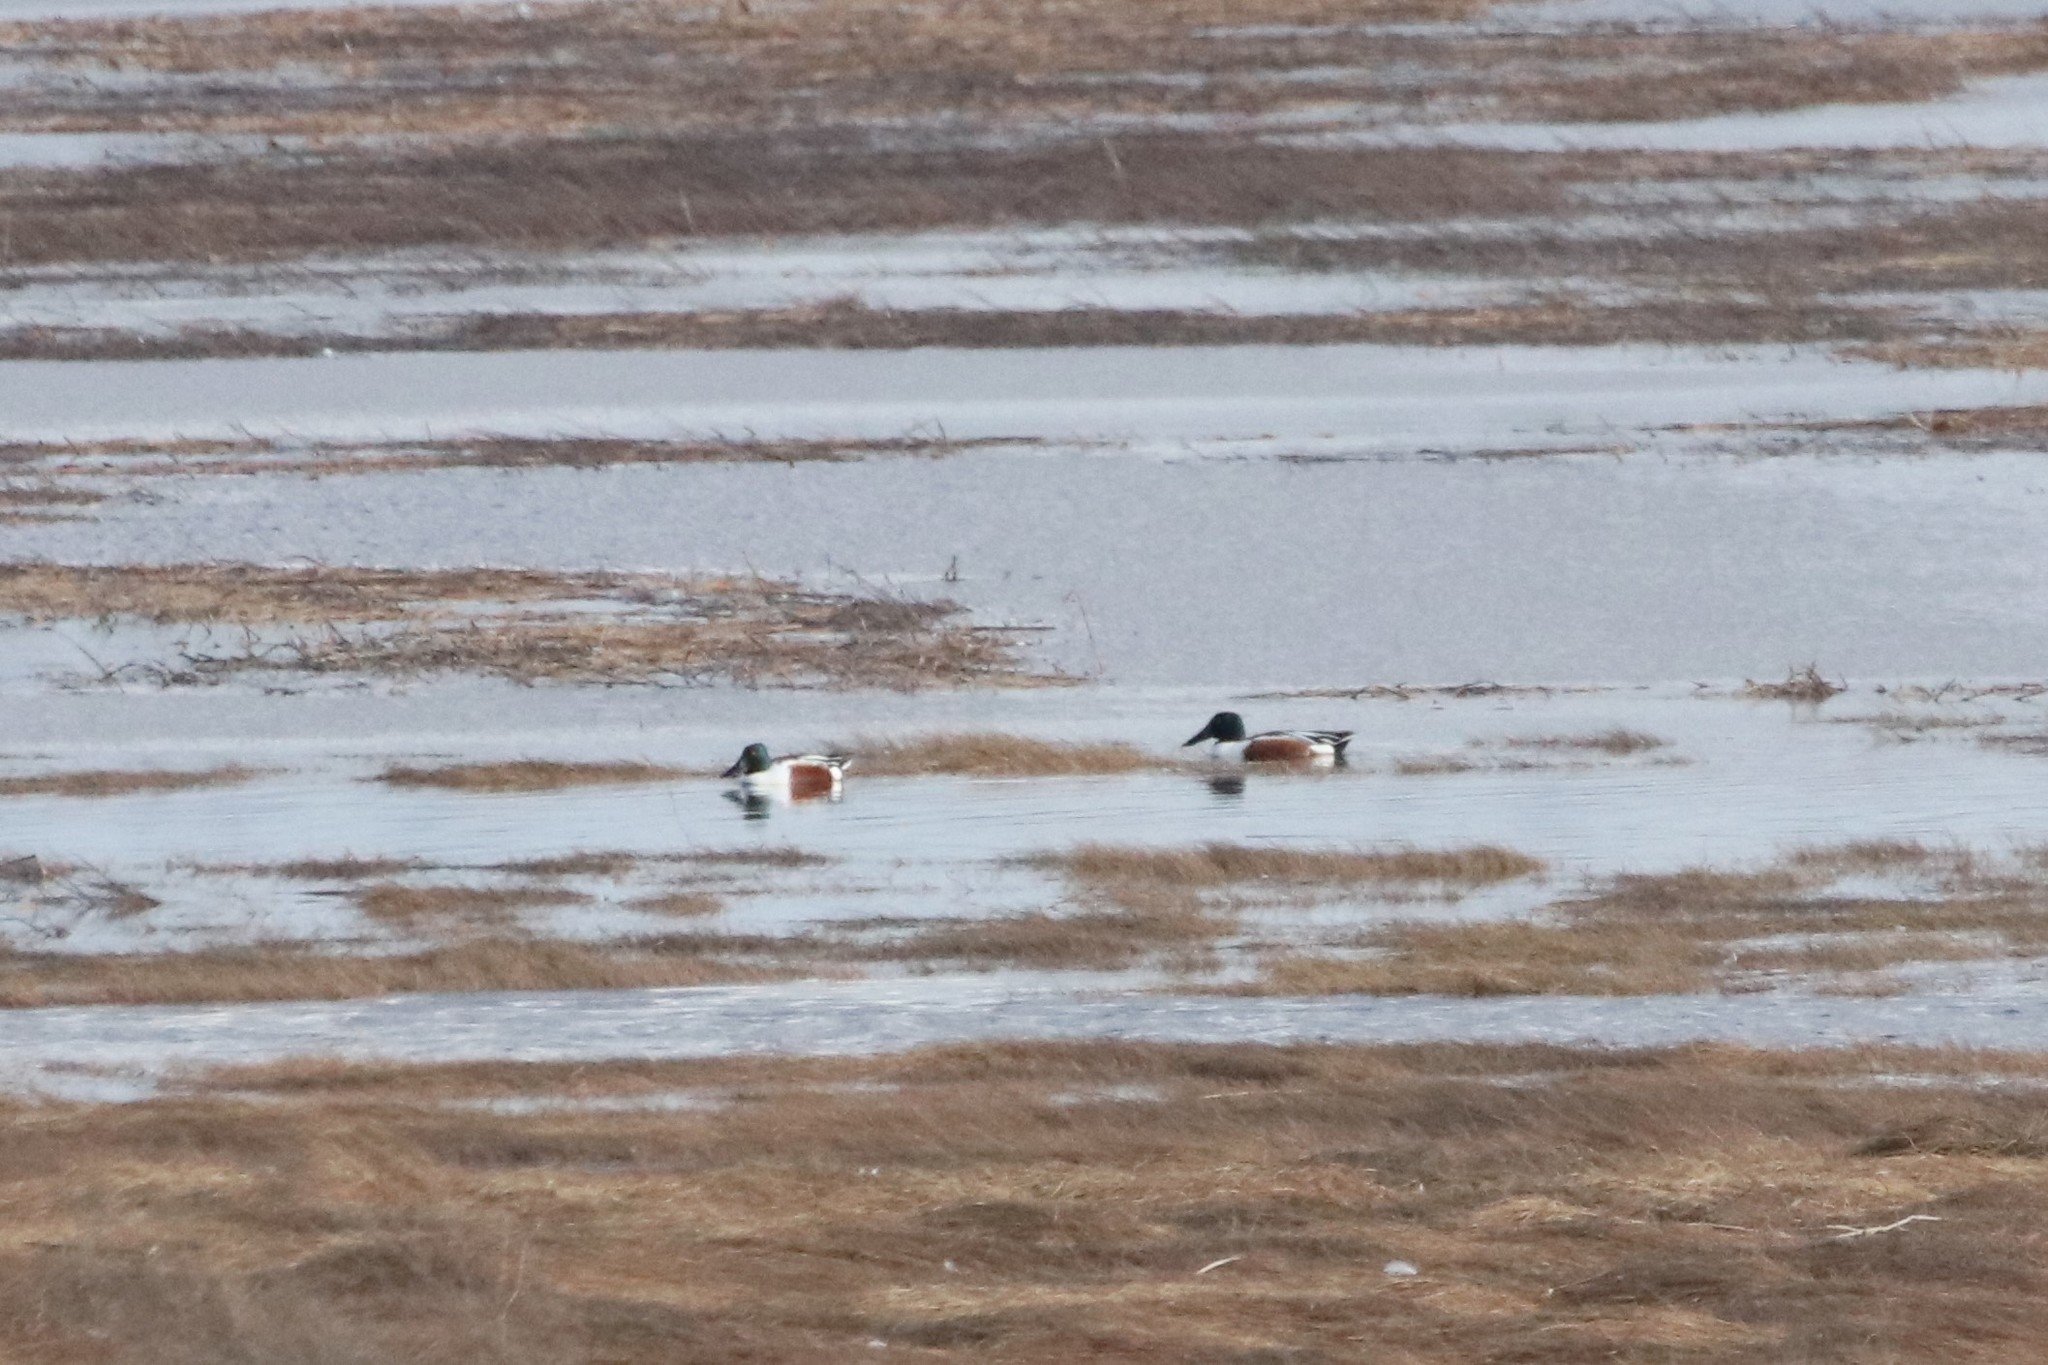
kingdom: Animalia
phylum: Chordata
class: Aves
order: Anseriformes
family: Anatidae
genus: Spatula
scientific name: Spatula clypeata
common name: Northern shoveler
